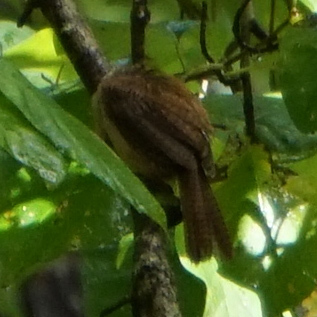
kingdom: Animalia
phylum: Chordata
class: Aves
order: Passeriformes
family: Troglodytidae
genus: Thryothorus
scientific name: Thryothorus ludovicianus
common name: Carolina wren
